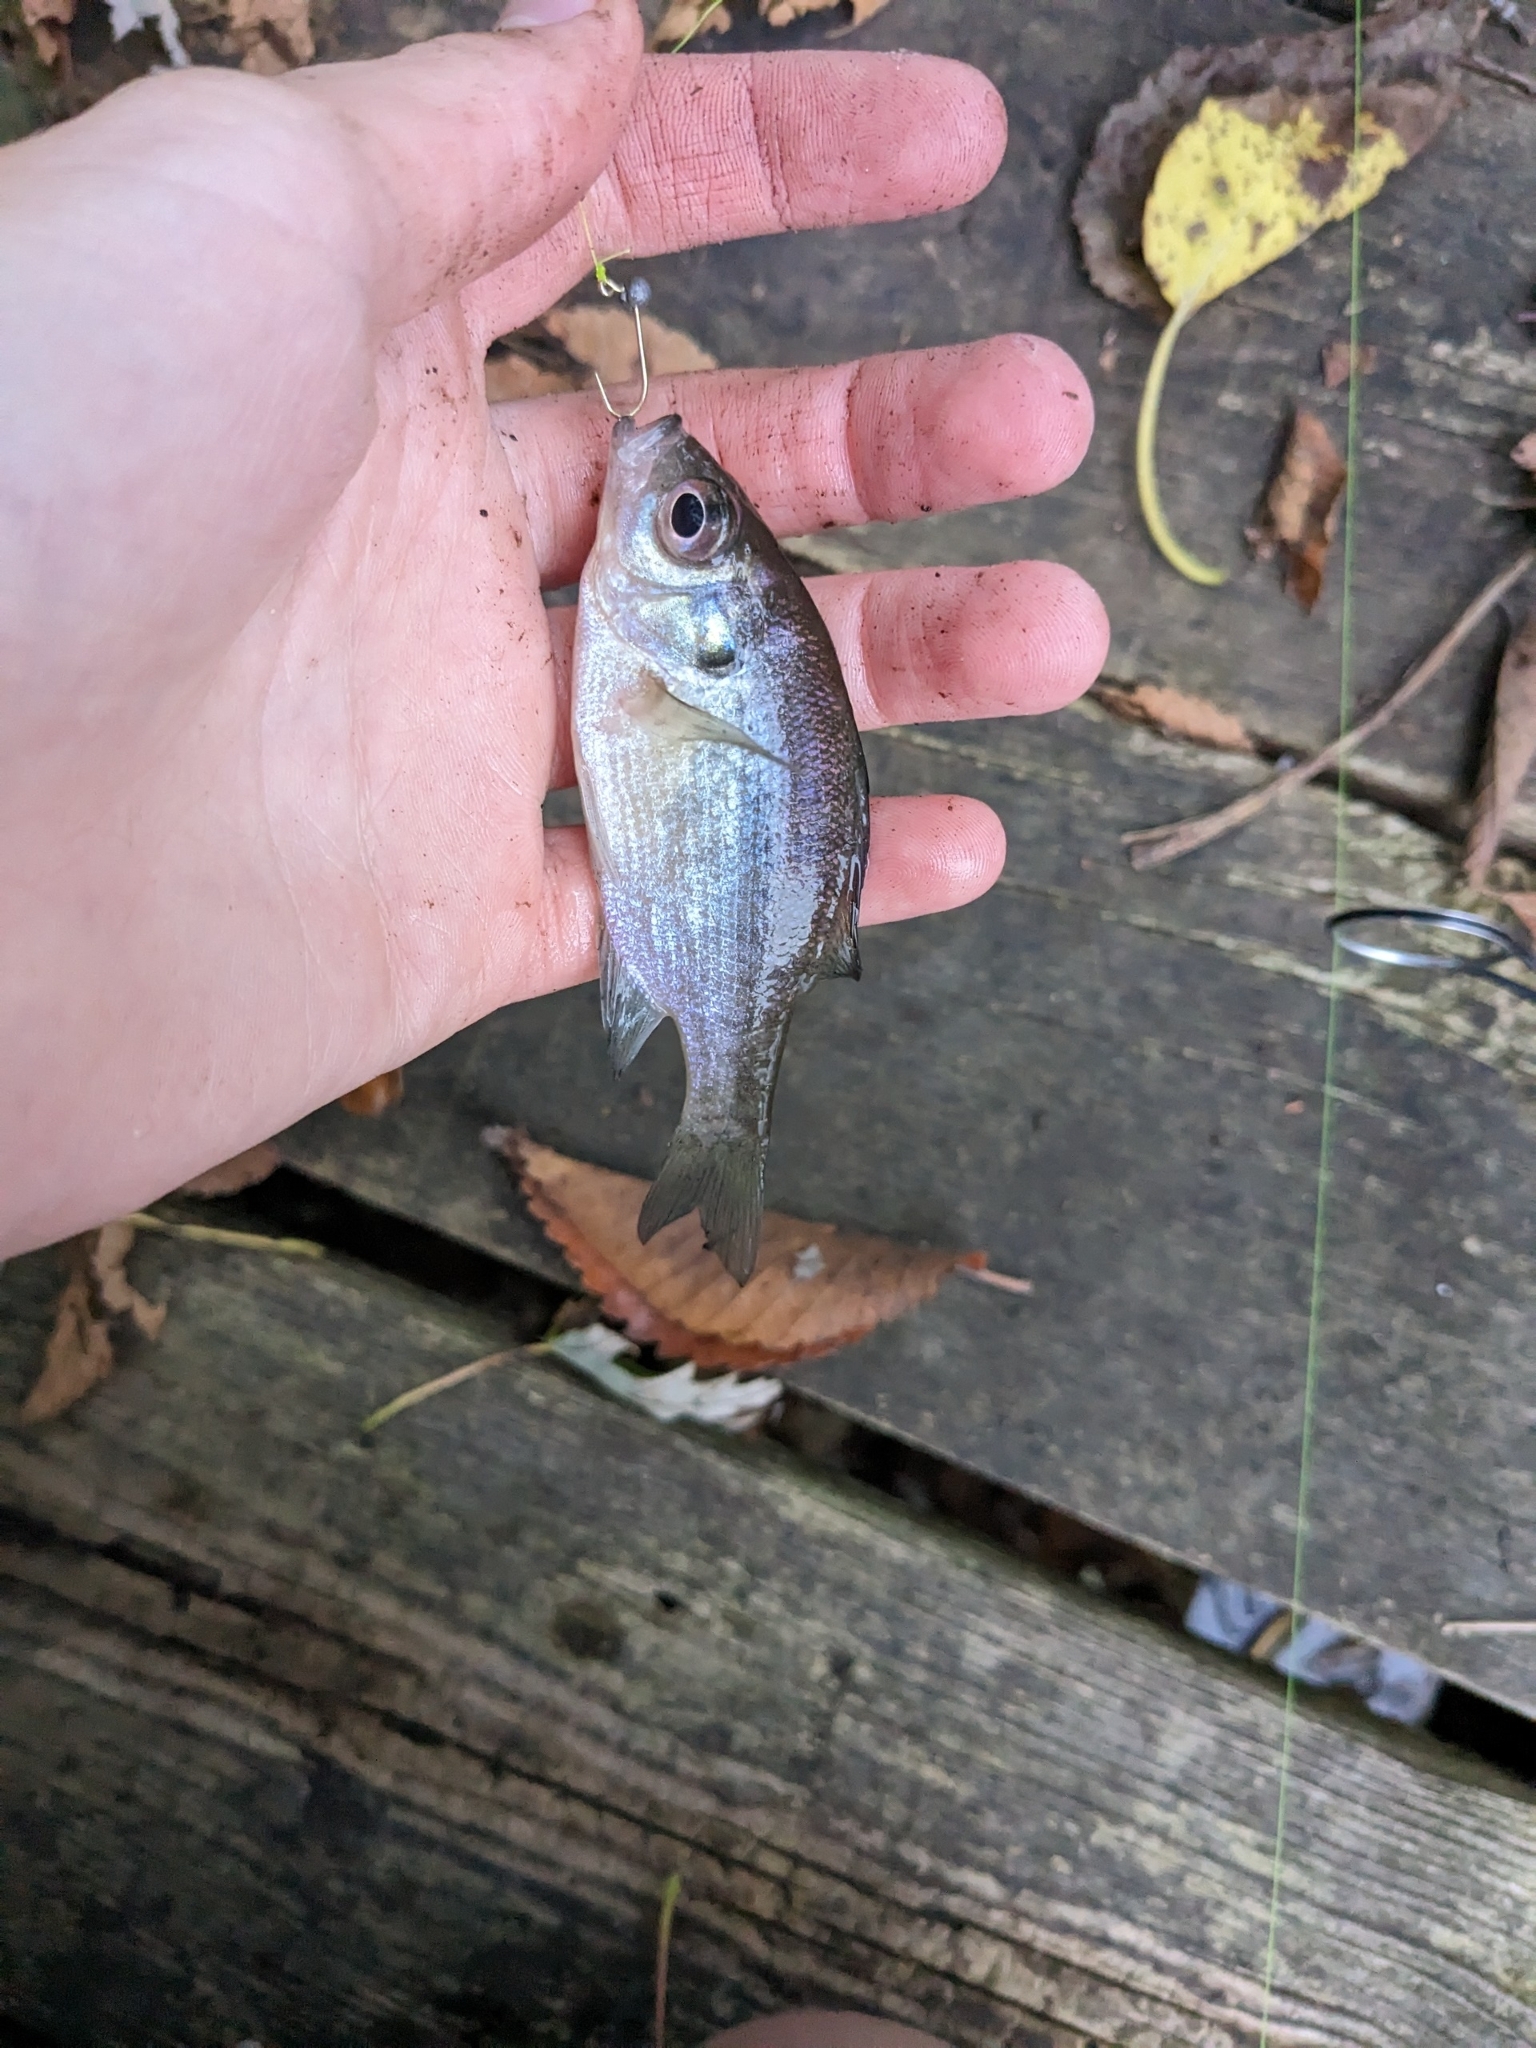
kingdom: Animalia
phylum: Chordata
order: Perciformes
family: Centrarchidae
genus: Lepomis
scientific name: Lepomis macrochirus
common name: Bluegill
